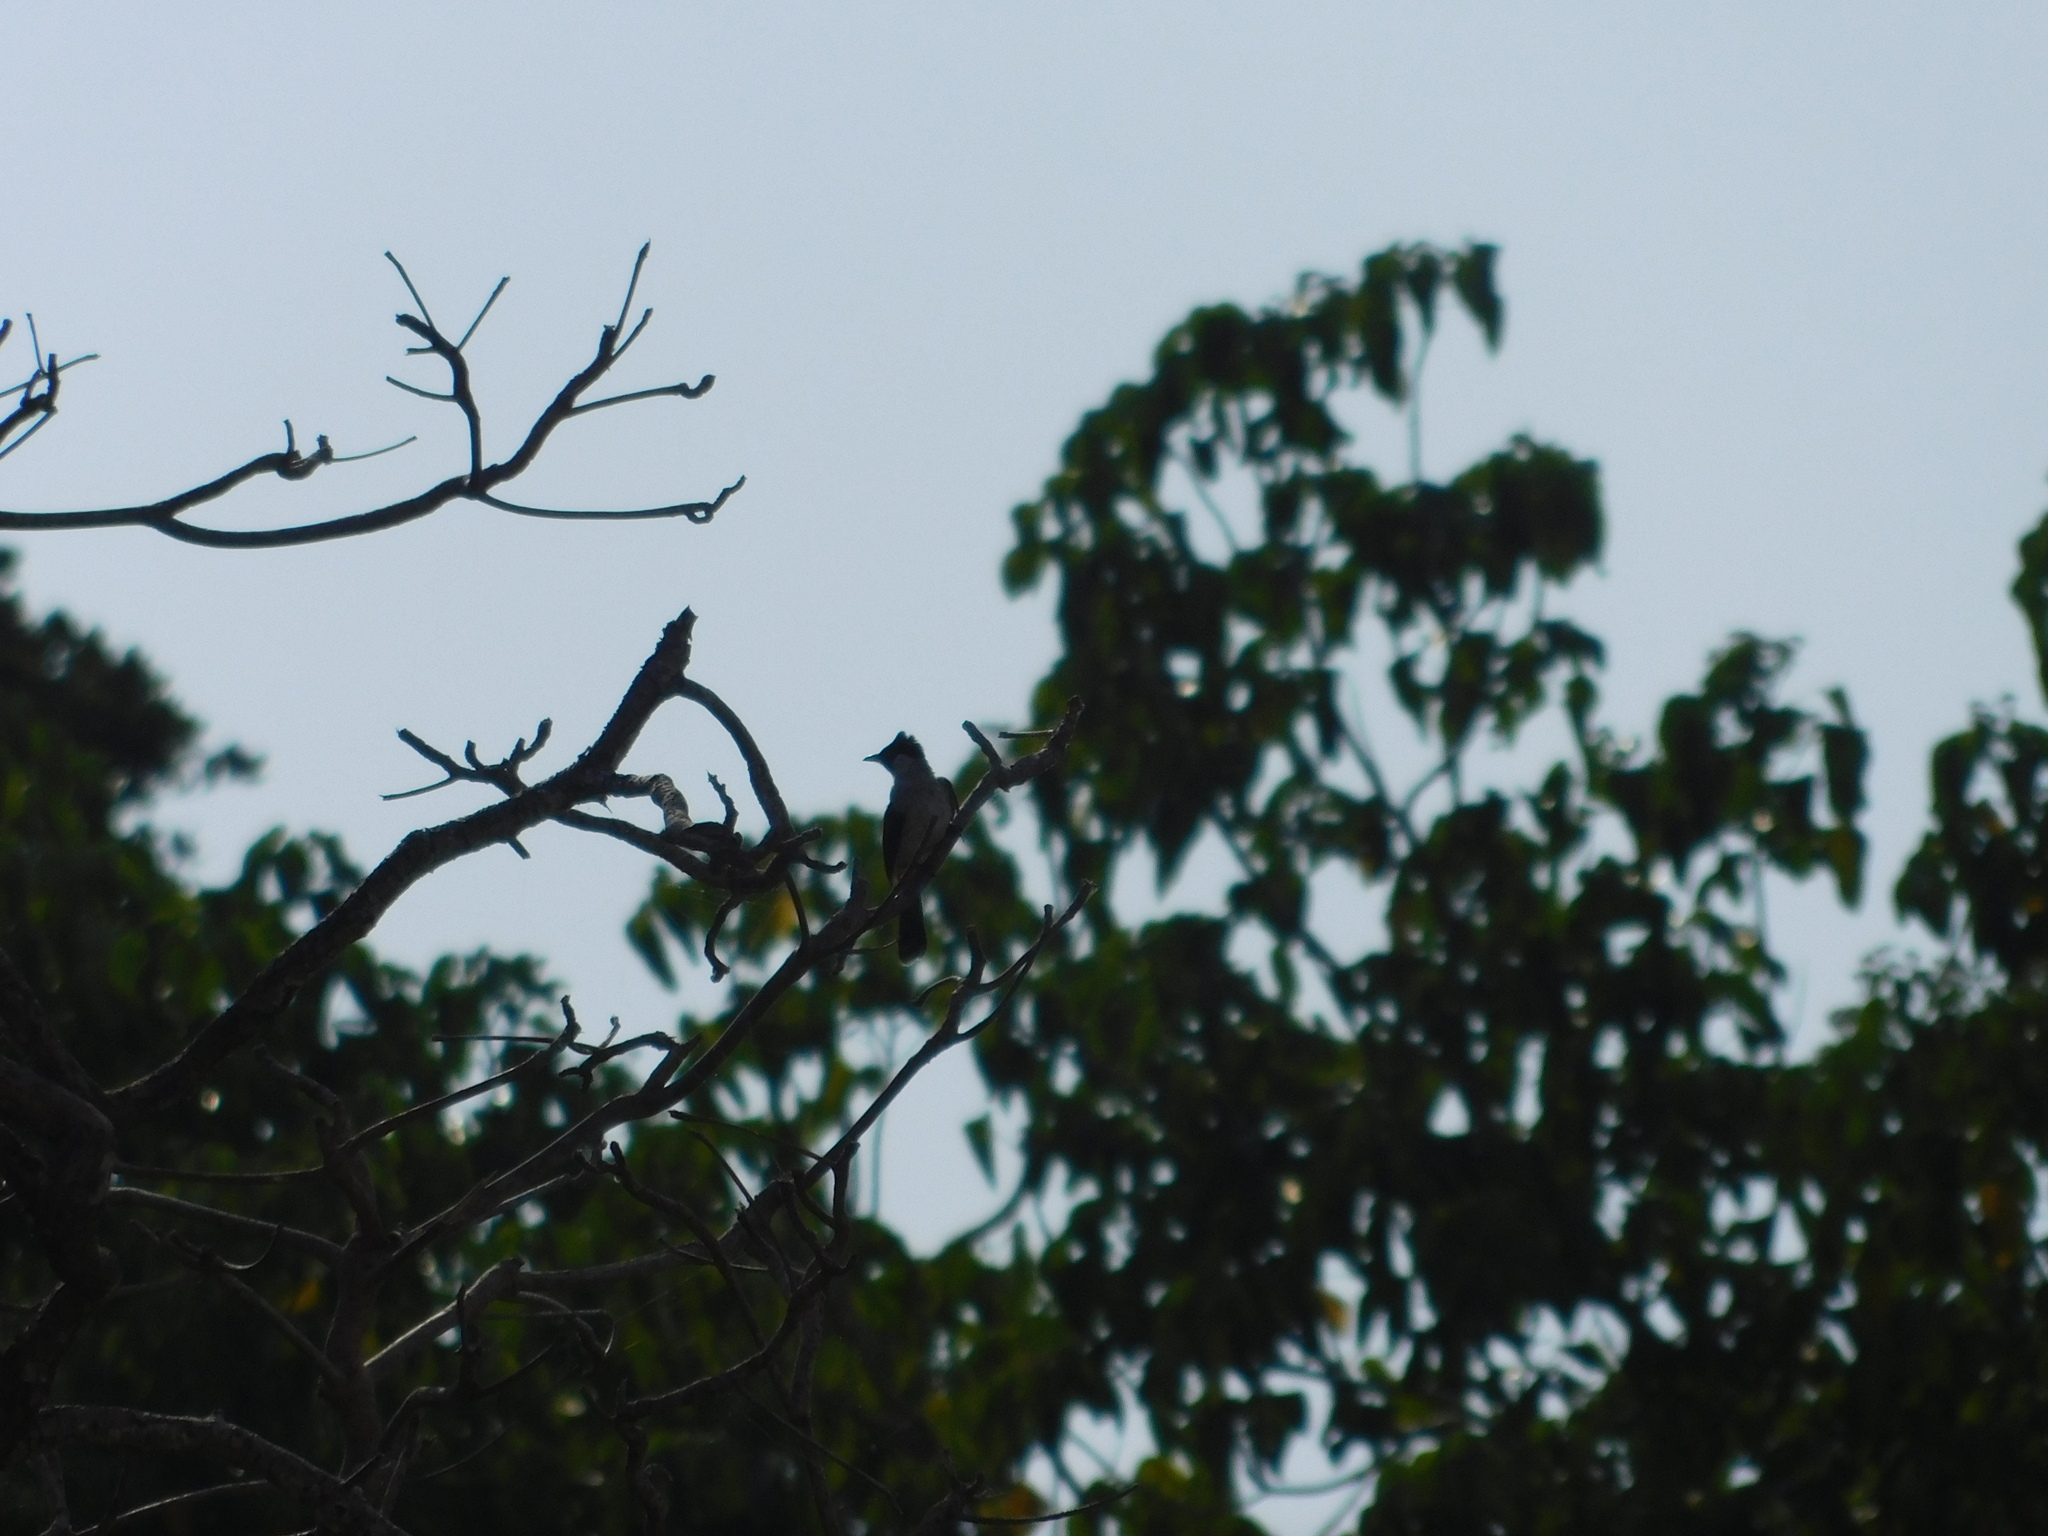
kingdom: Animalia
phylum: Chordata
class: Aves
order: Passeriformes
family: Pycnonotidae
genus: Pycnonotus
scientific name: Pycnonotus aurigaster
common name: Sooty-headed bulbul
